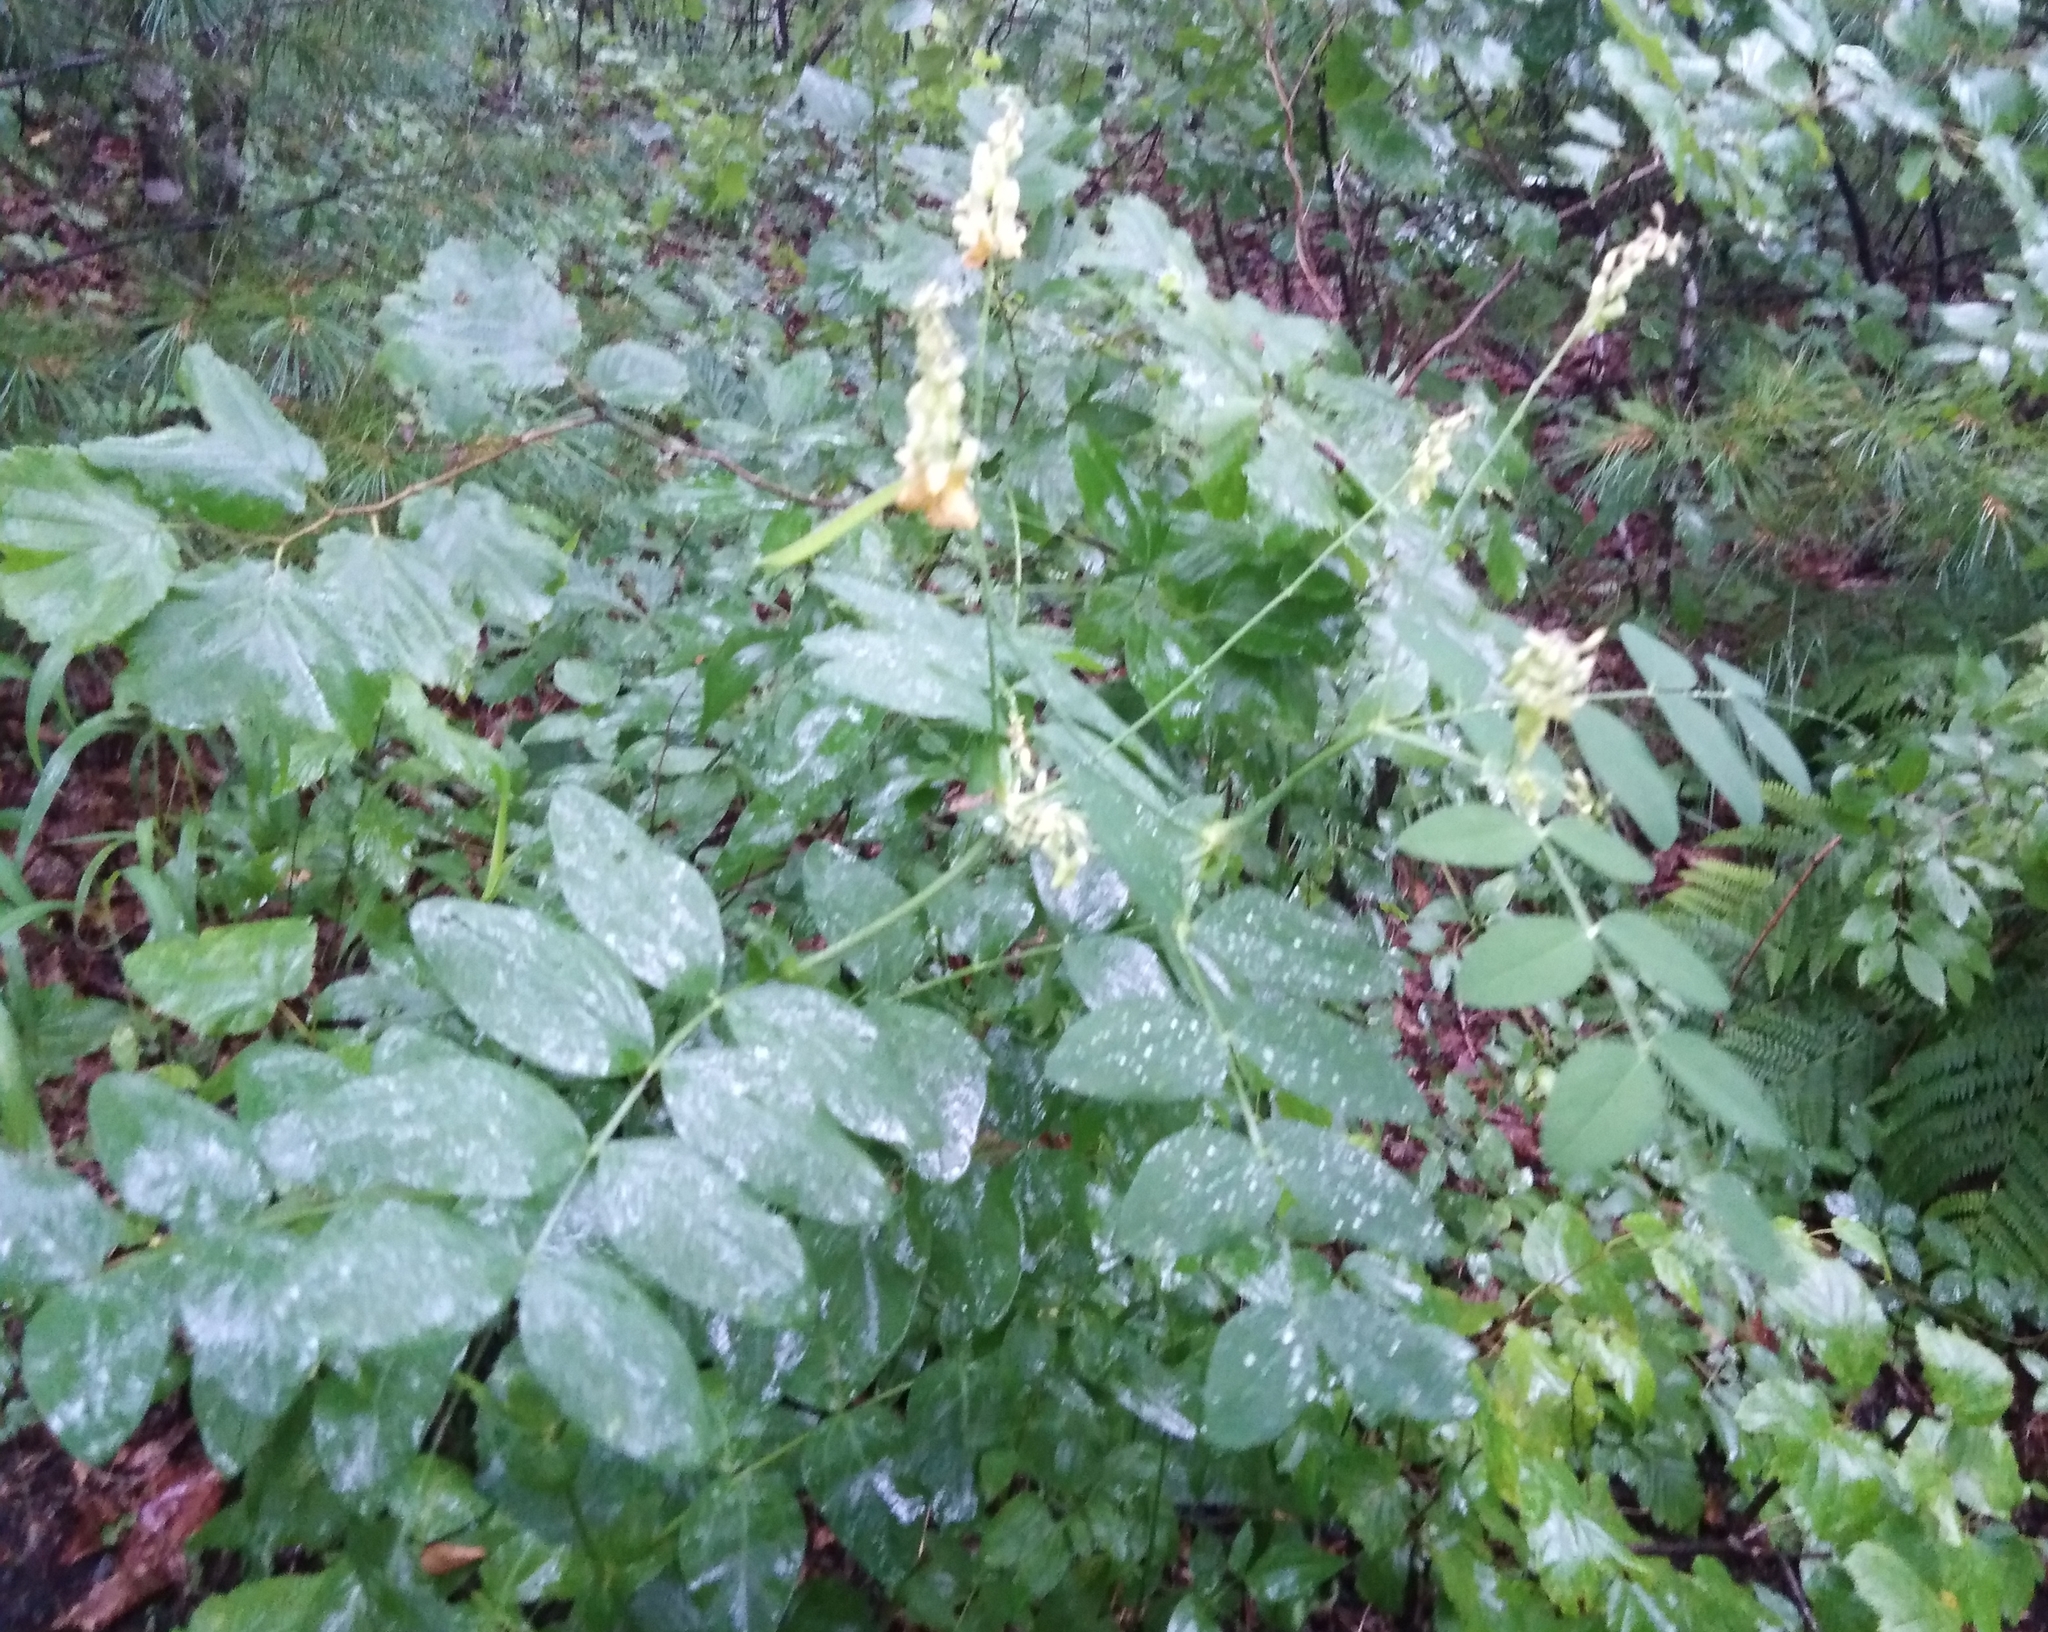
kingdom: Plantae
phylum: Tracheophyta
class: Magnoliopsida
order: Fabales
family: Fabaceae
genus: Lathyrus
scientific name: Lathyrus davidii
